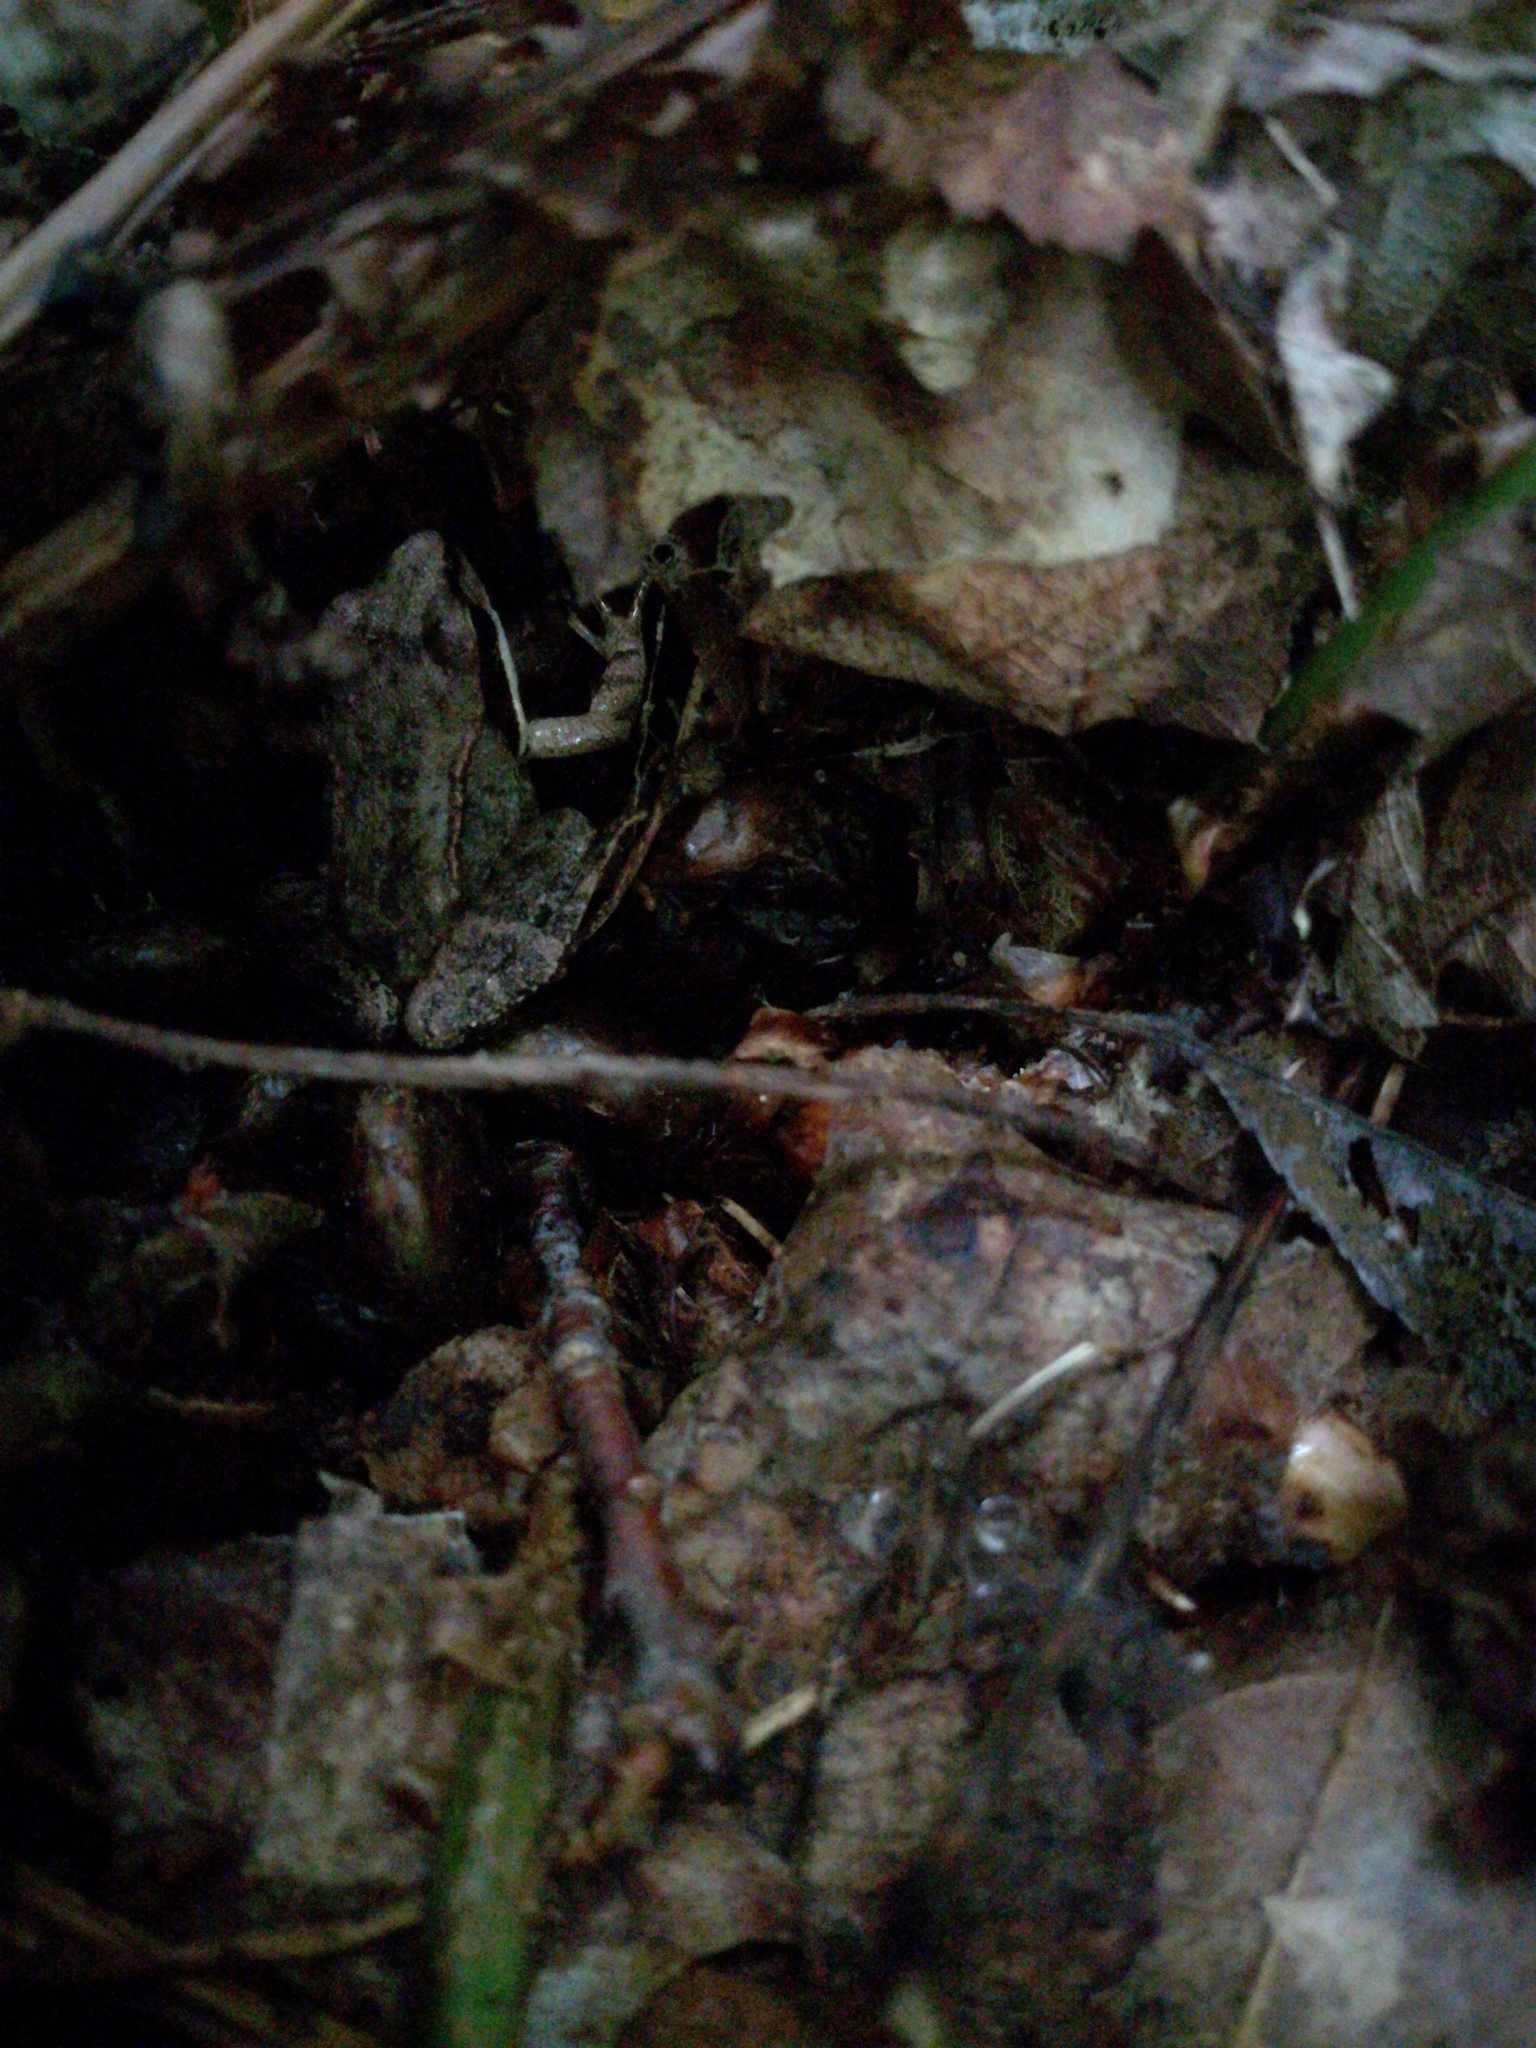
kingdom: Animalia
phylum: Chordata
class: Amphibia
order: Anura
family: Ranidae
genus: Lithobates
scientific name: Lithobates sylvaticus
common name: Wood frog
